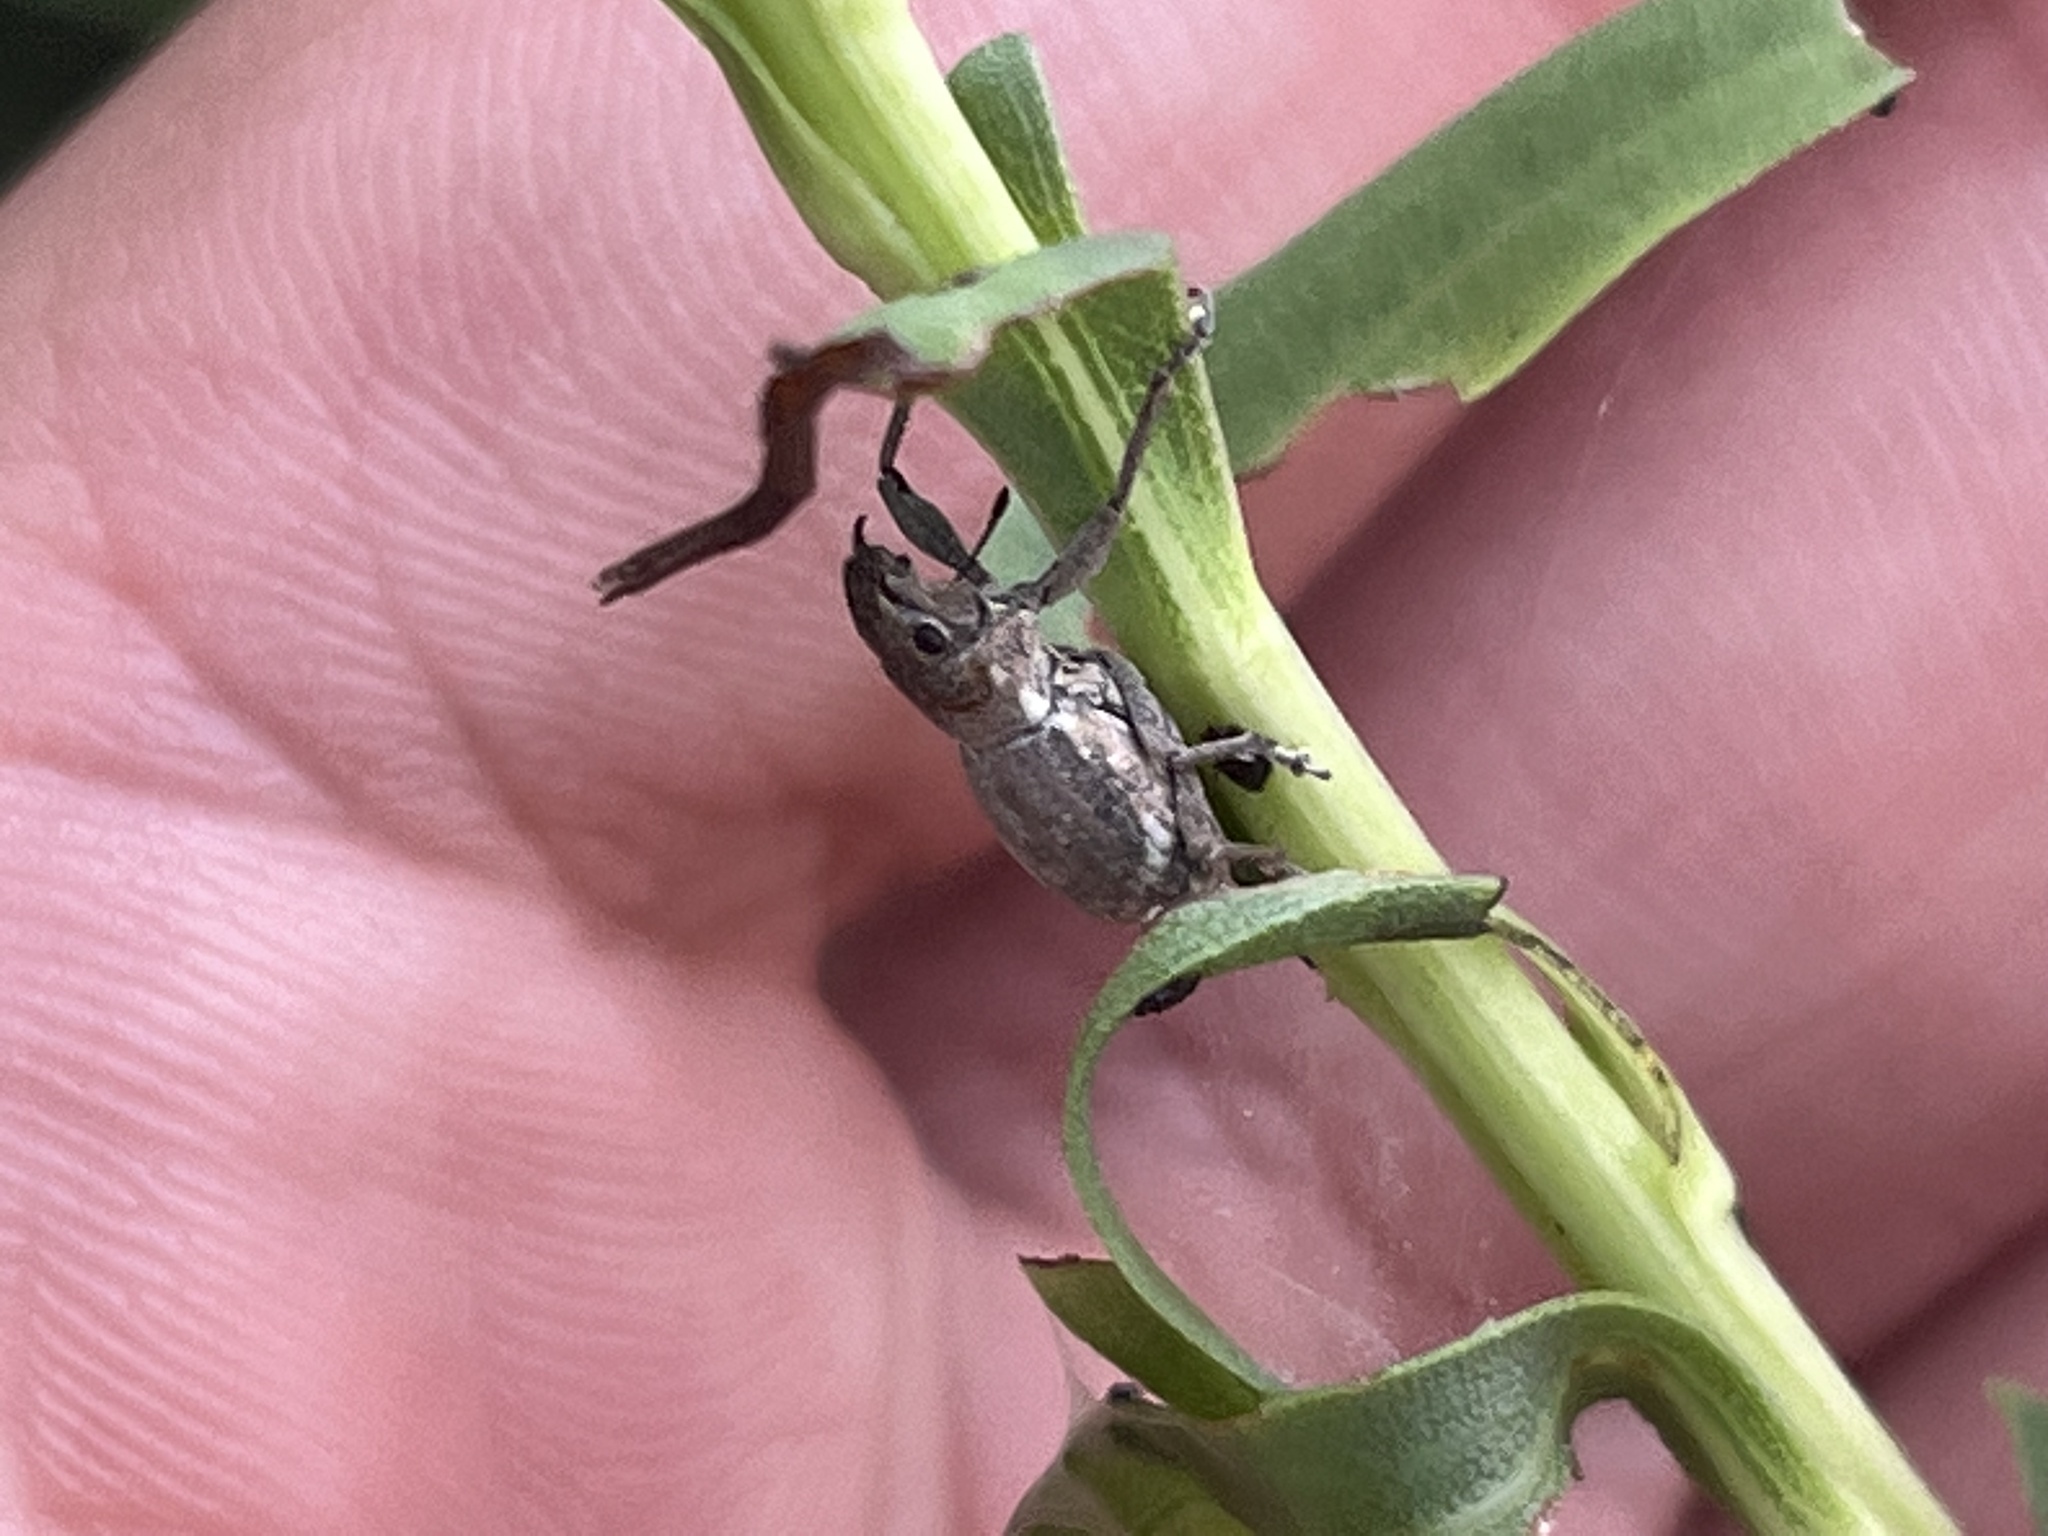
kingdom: Animalia
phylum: Arthropoda
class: Insecta
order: Coleoptera
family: Curculionidae
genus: Naupactus
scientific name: Naupactus cervinus
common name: Fuller rose beetle
